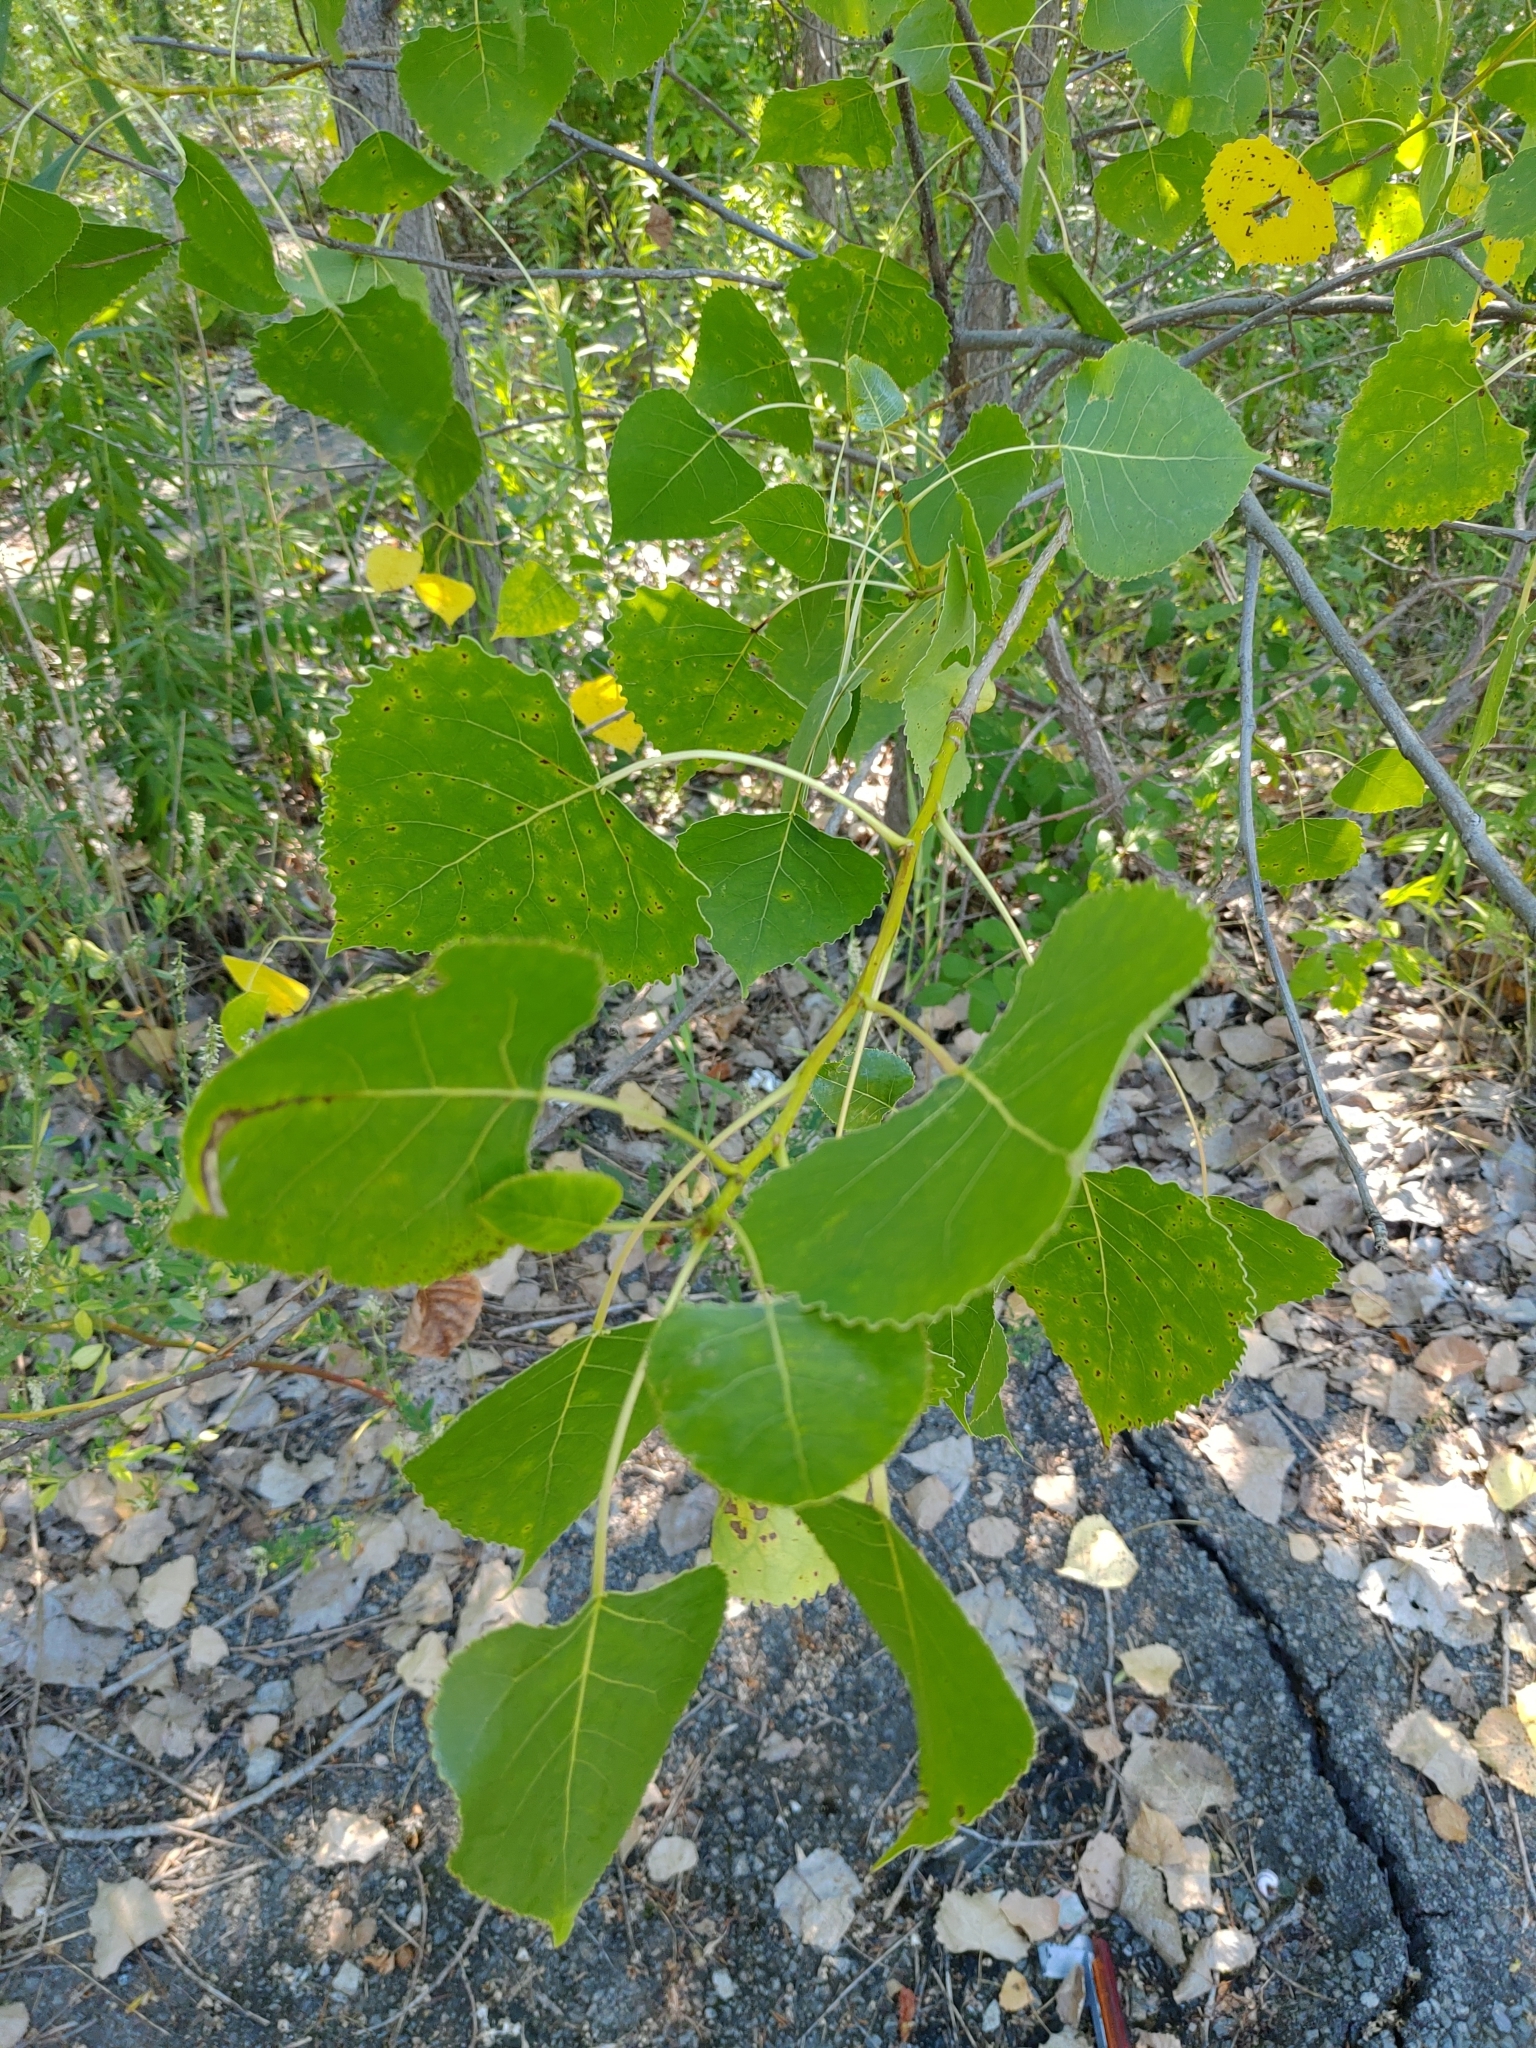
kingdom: Plantae
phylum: Tracheophyta
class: Magnoliopsida
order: Malpighiales
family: Salicaceae
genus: Populus
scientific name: Populus deltoides
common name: Eastern cottonwood
